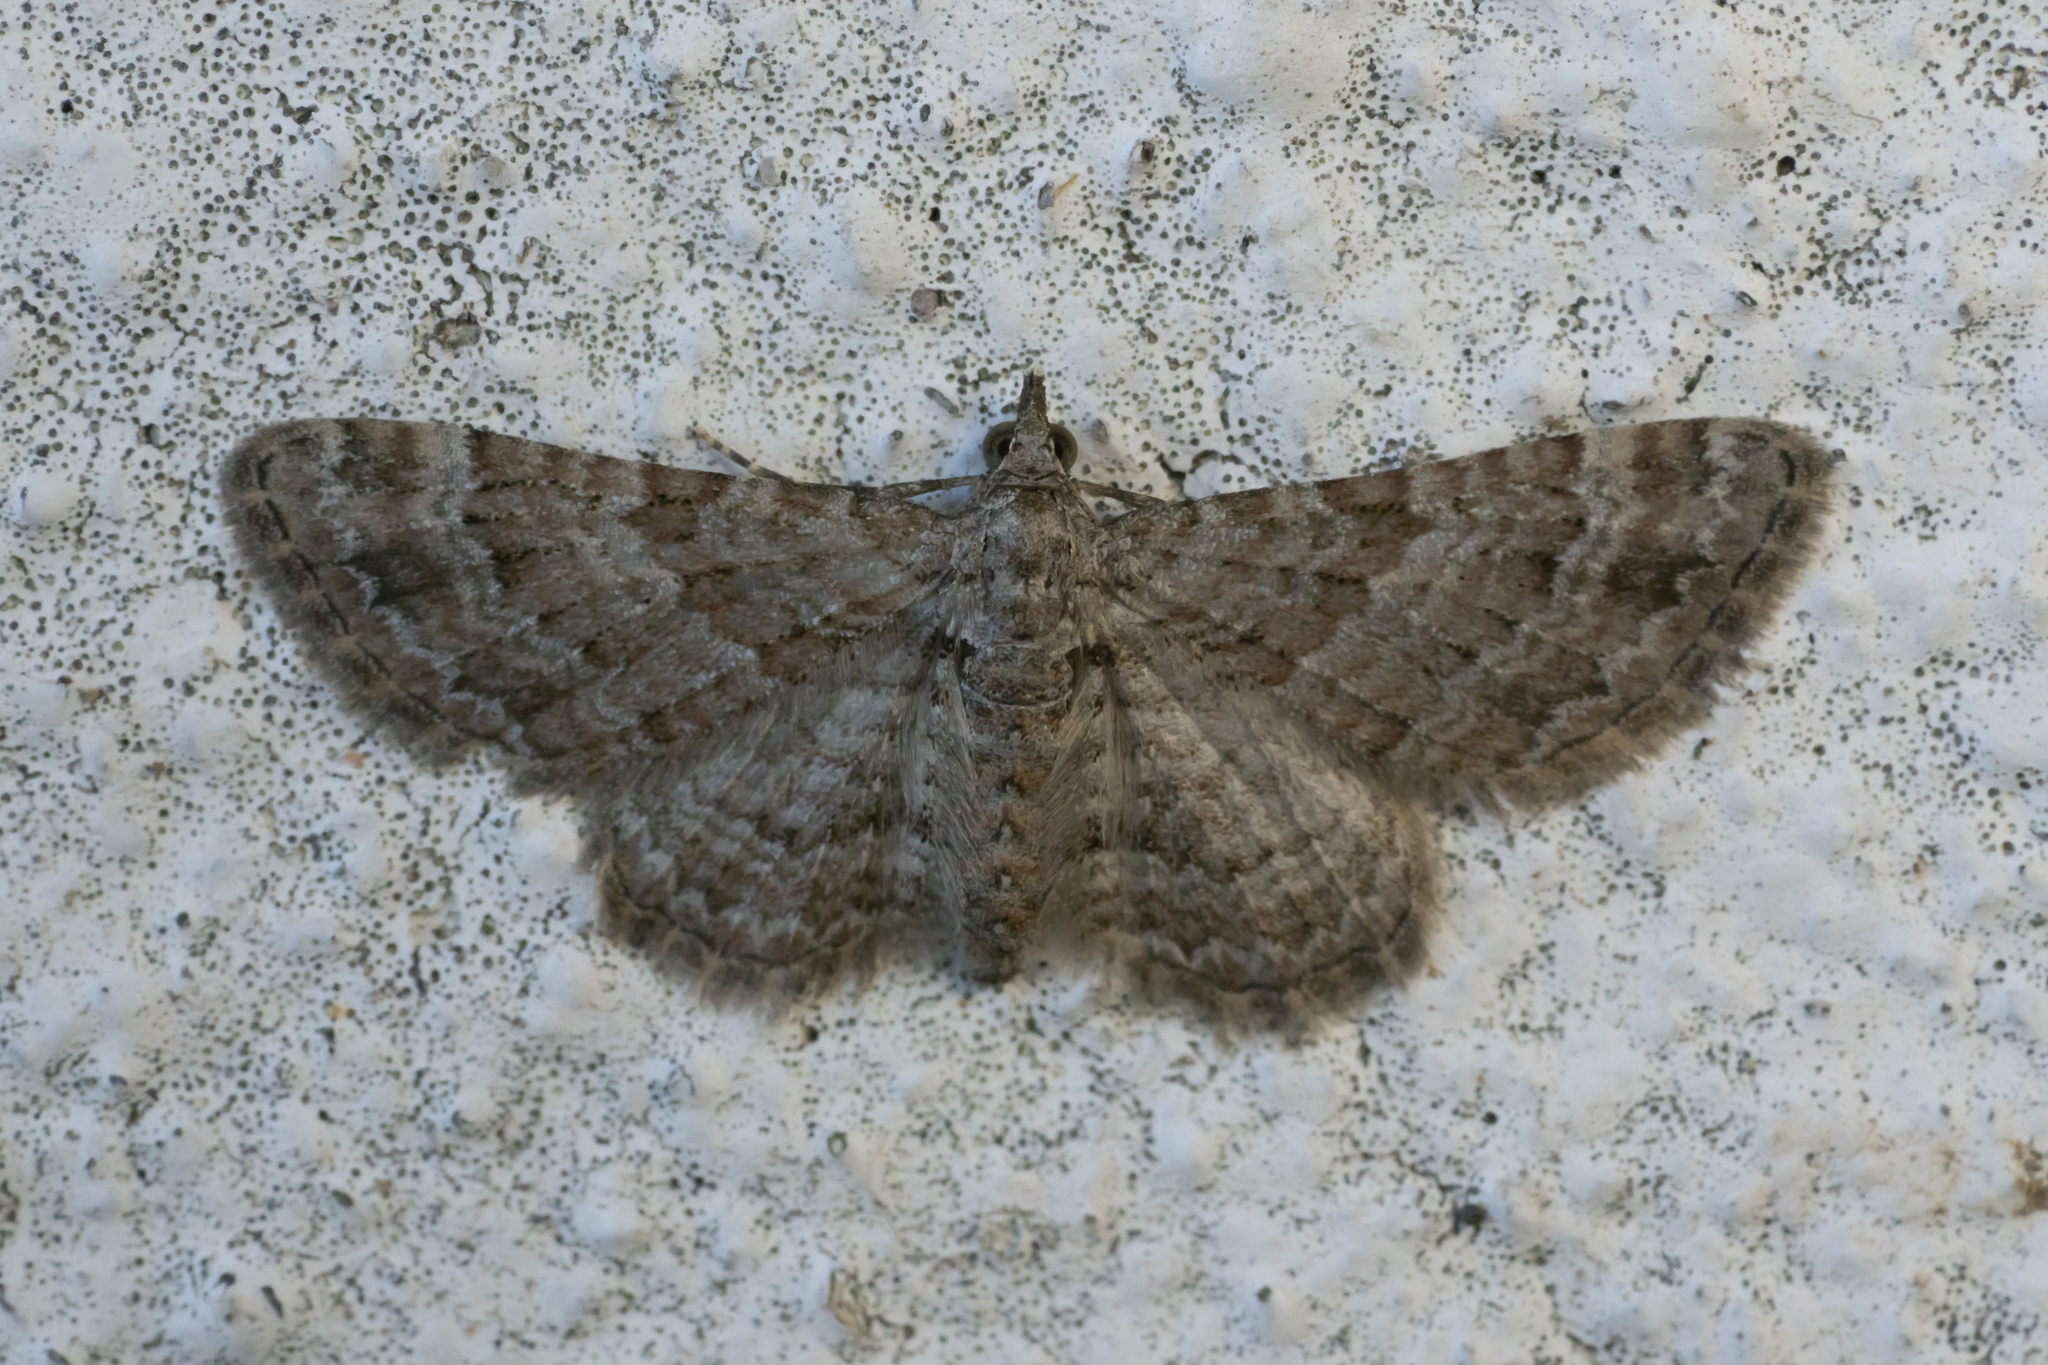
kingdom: Animalia
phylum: Arthropoda
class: Insecta
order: Lepidoptera
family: Geometridae
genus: Gymnoscelis
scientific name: Gymnoscelis rufifasciata
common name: Double-striped pug
